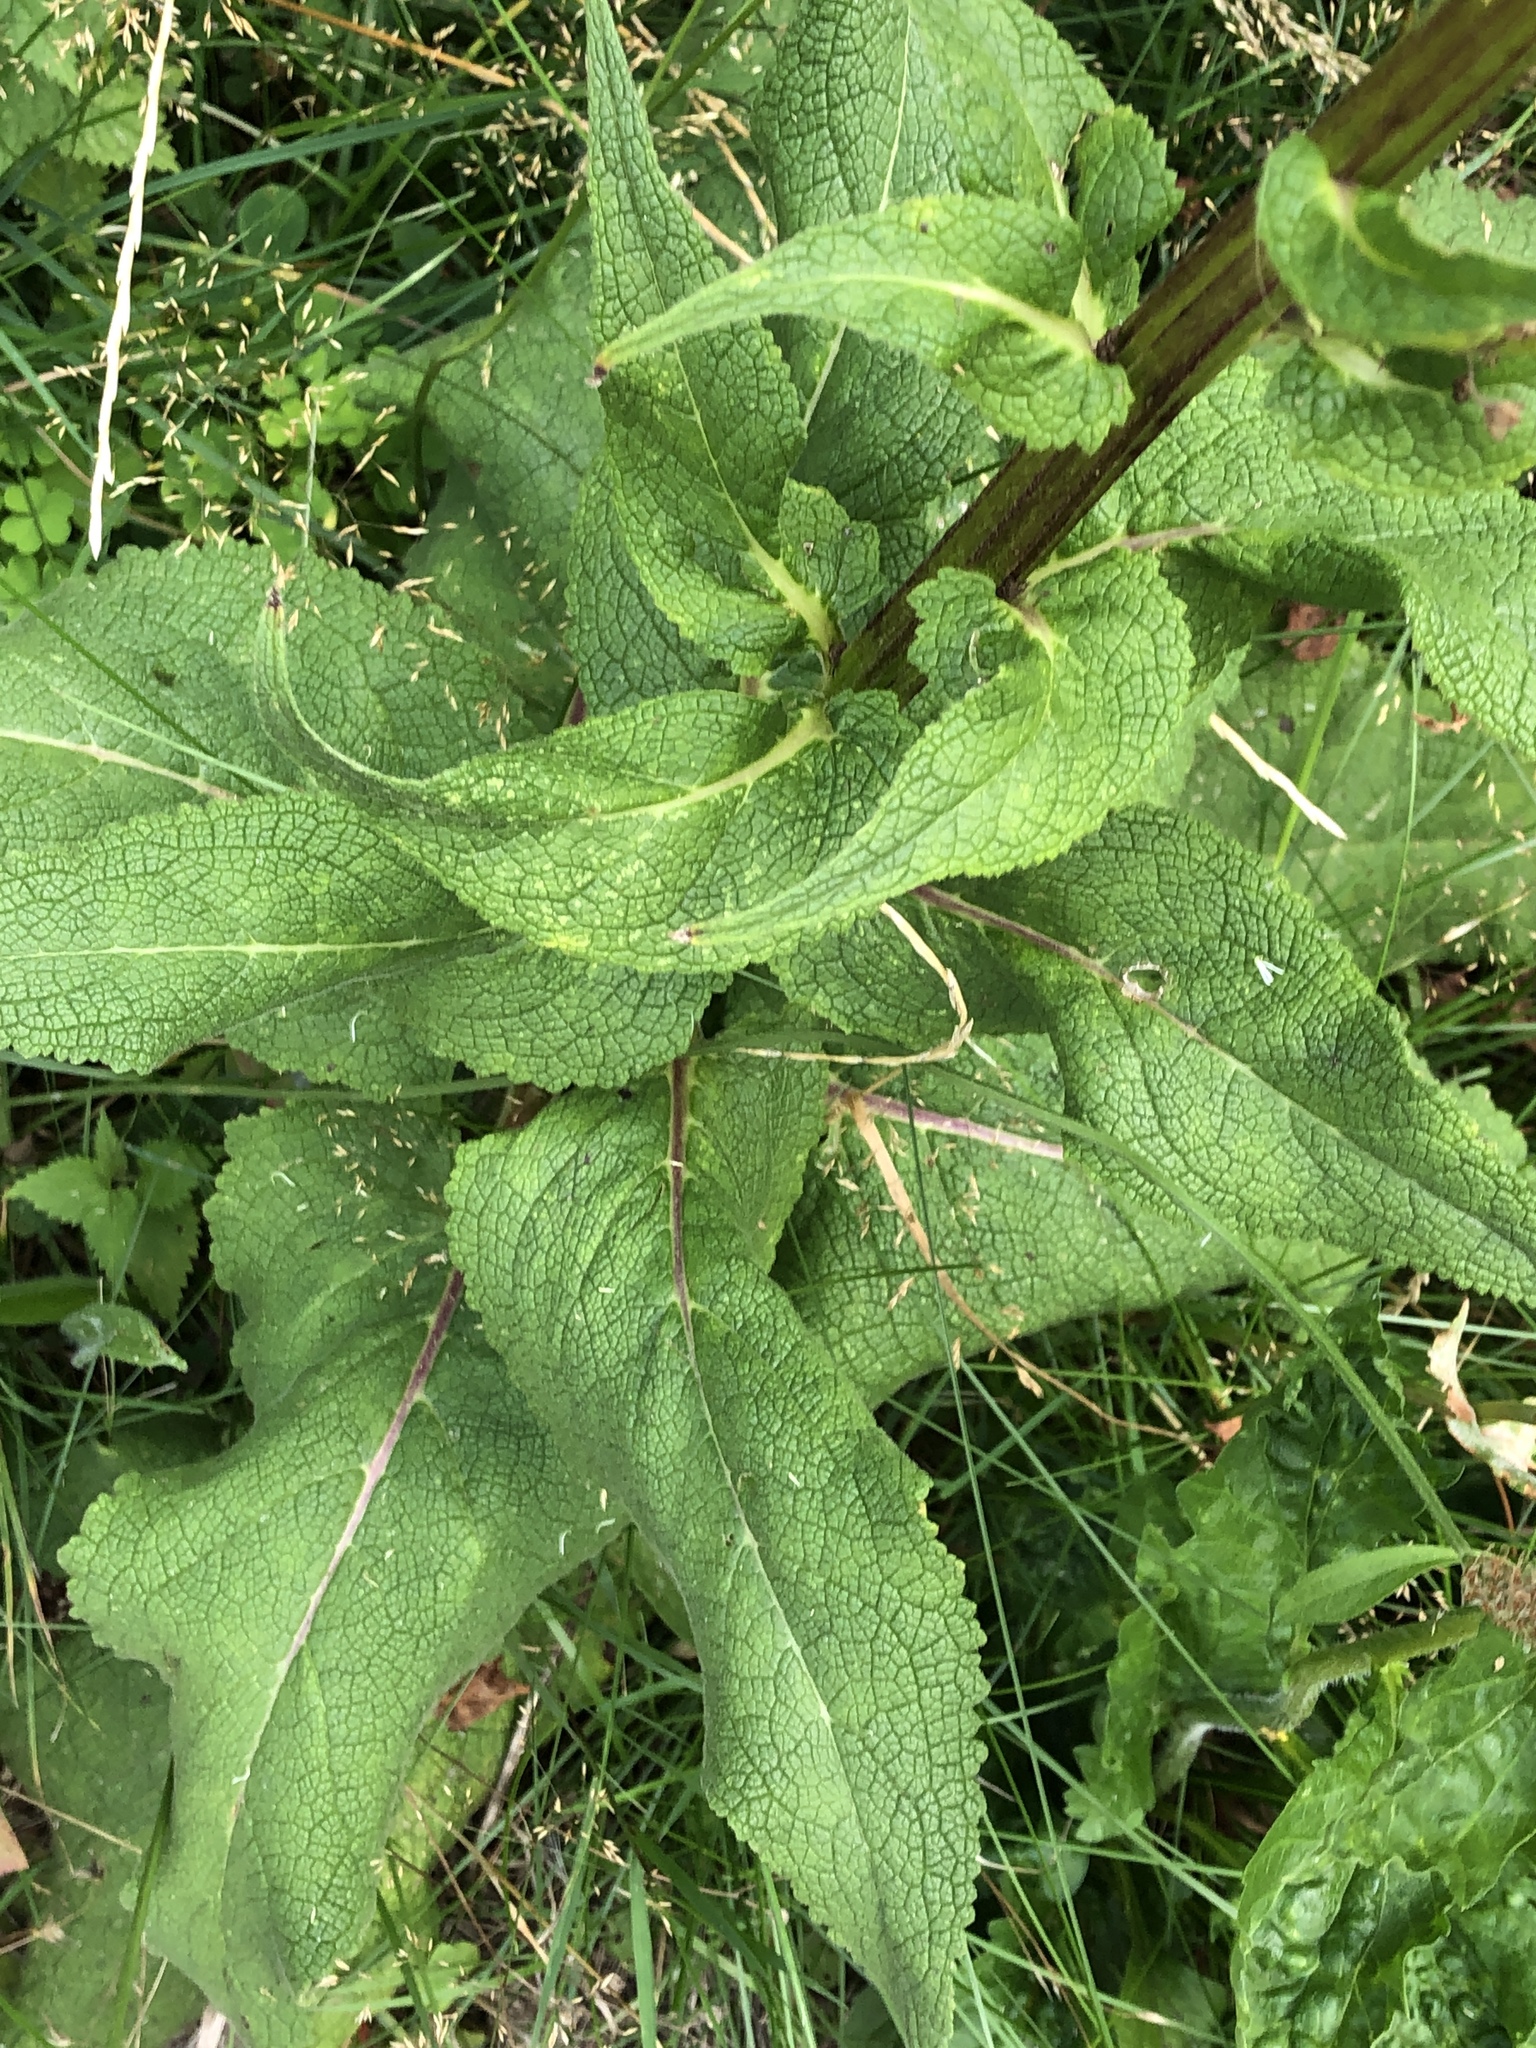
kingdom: Plantae
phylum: Tracheophyta
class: Magnoliopsida
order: Lamiales
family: Scrophulariaceae
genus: Verbascum
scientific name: Verbascum nigrum
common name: Dark mullein
